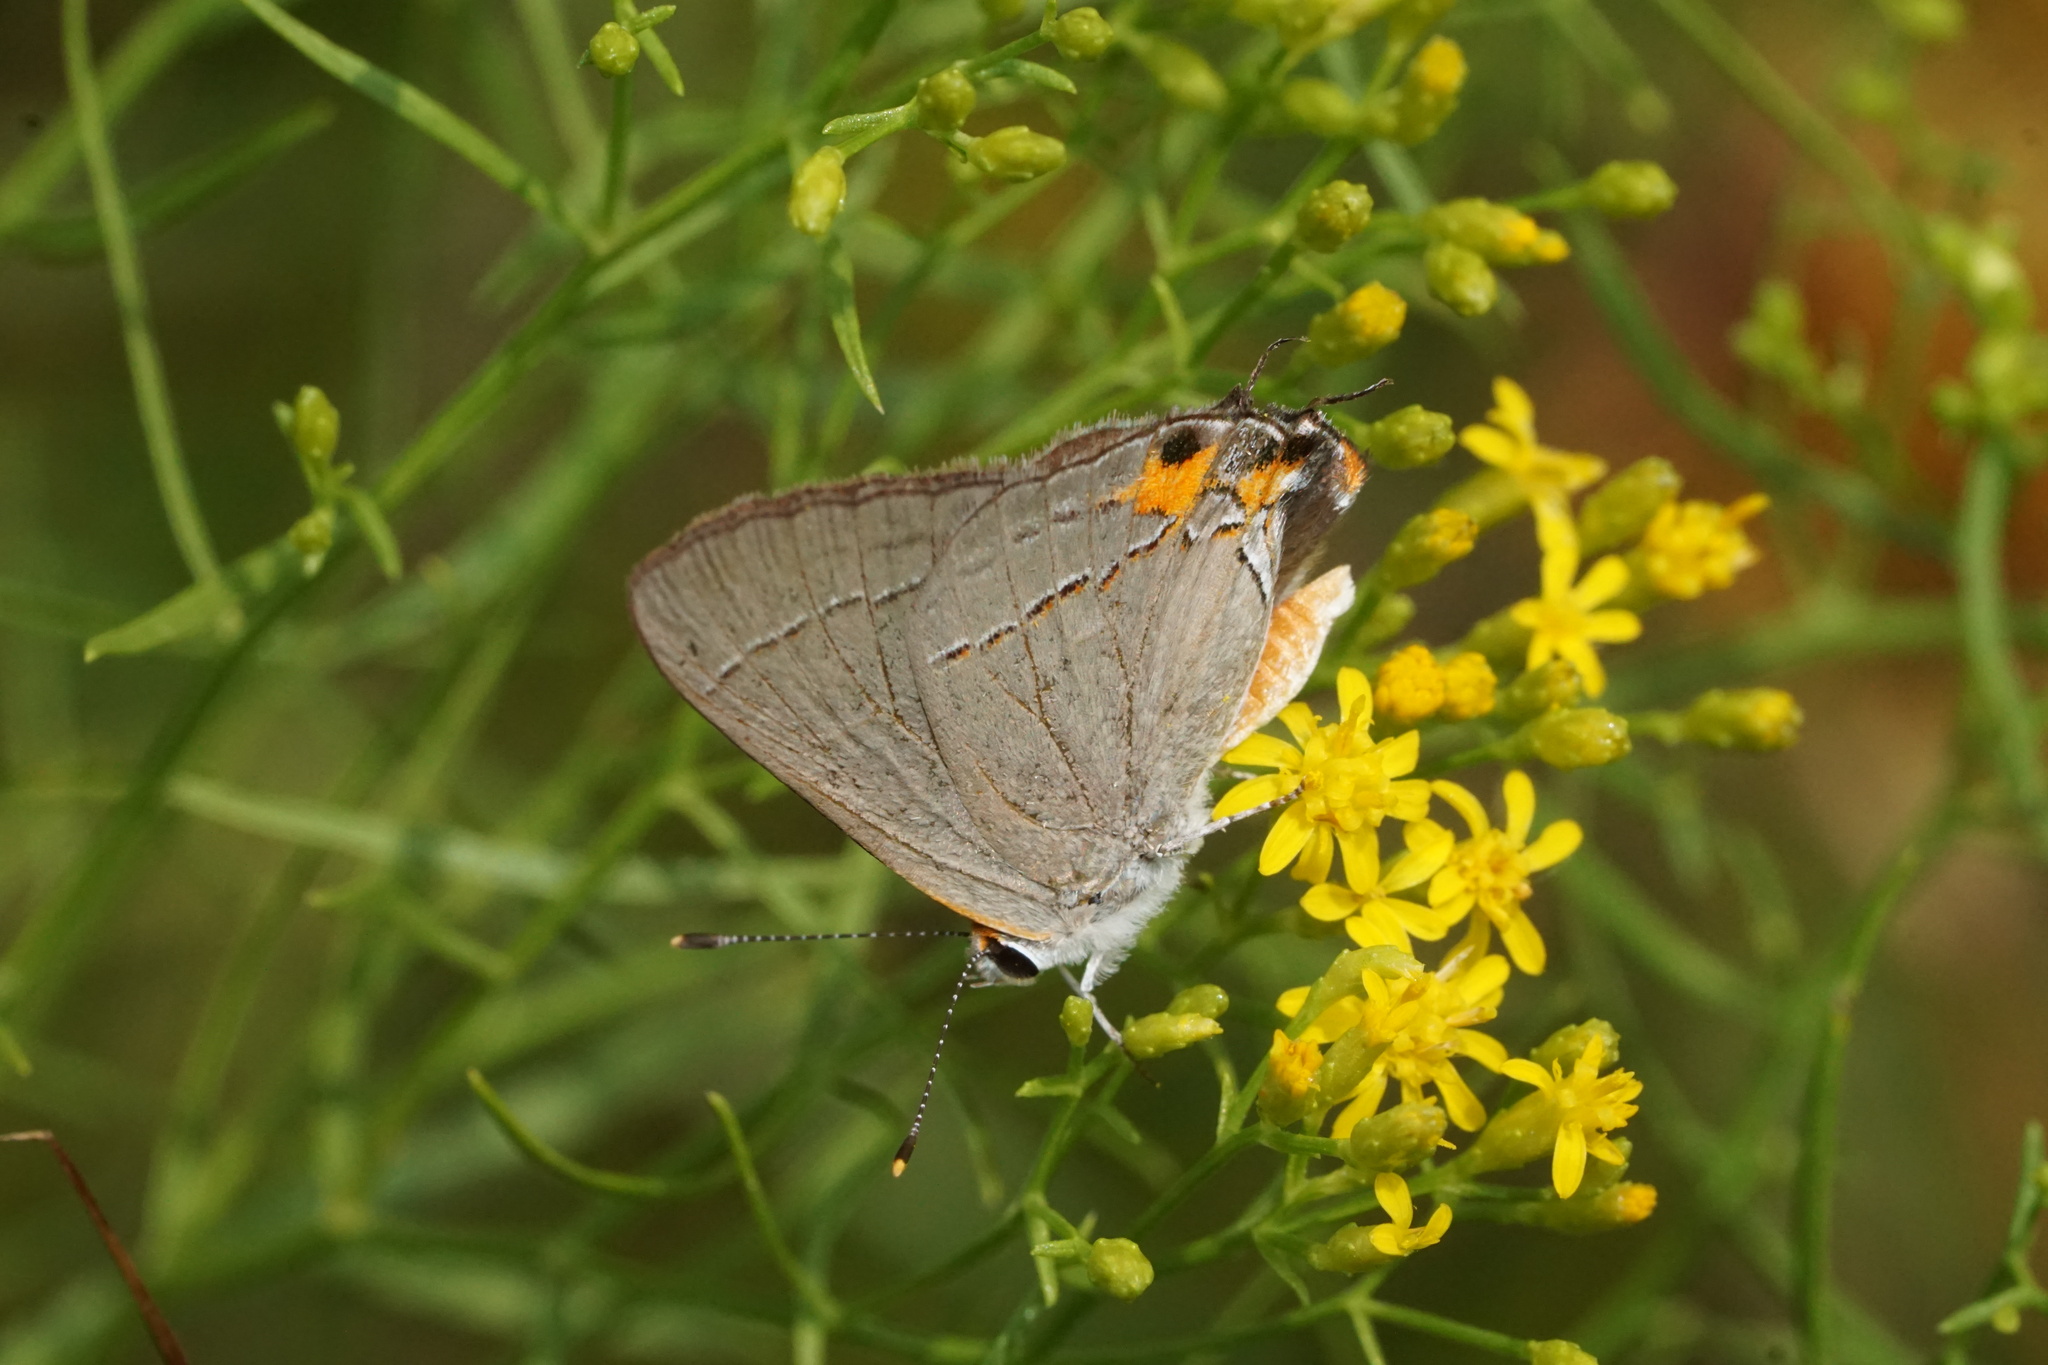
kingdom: Animalia
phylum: Arthropoda
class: Insecta
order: Lepidoptera
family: Lycaenidae
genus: Strymon
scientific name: Strymon melinus
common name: Gray hairstreak
